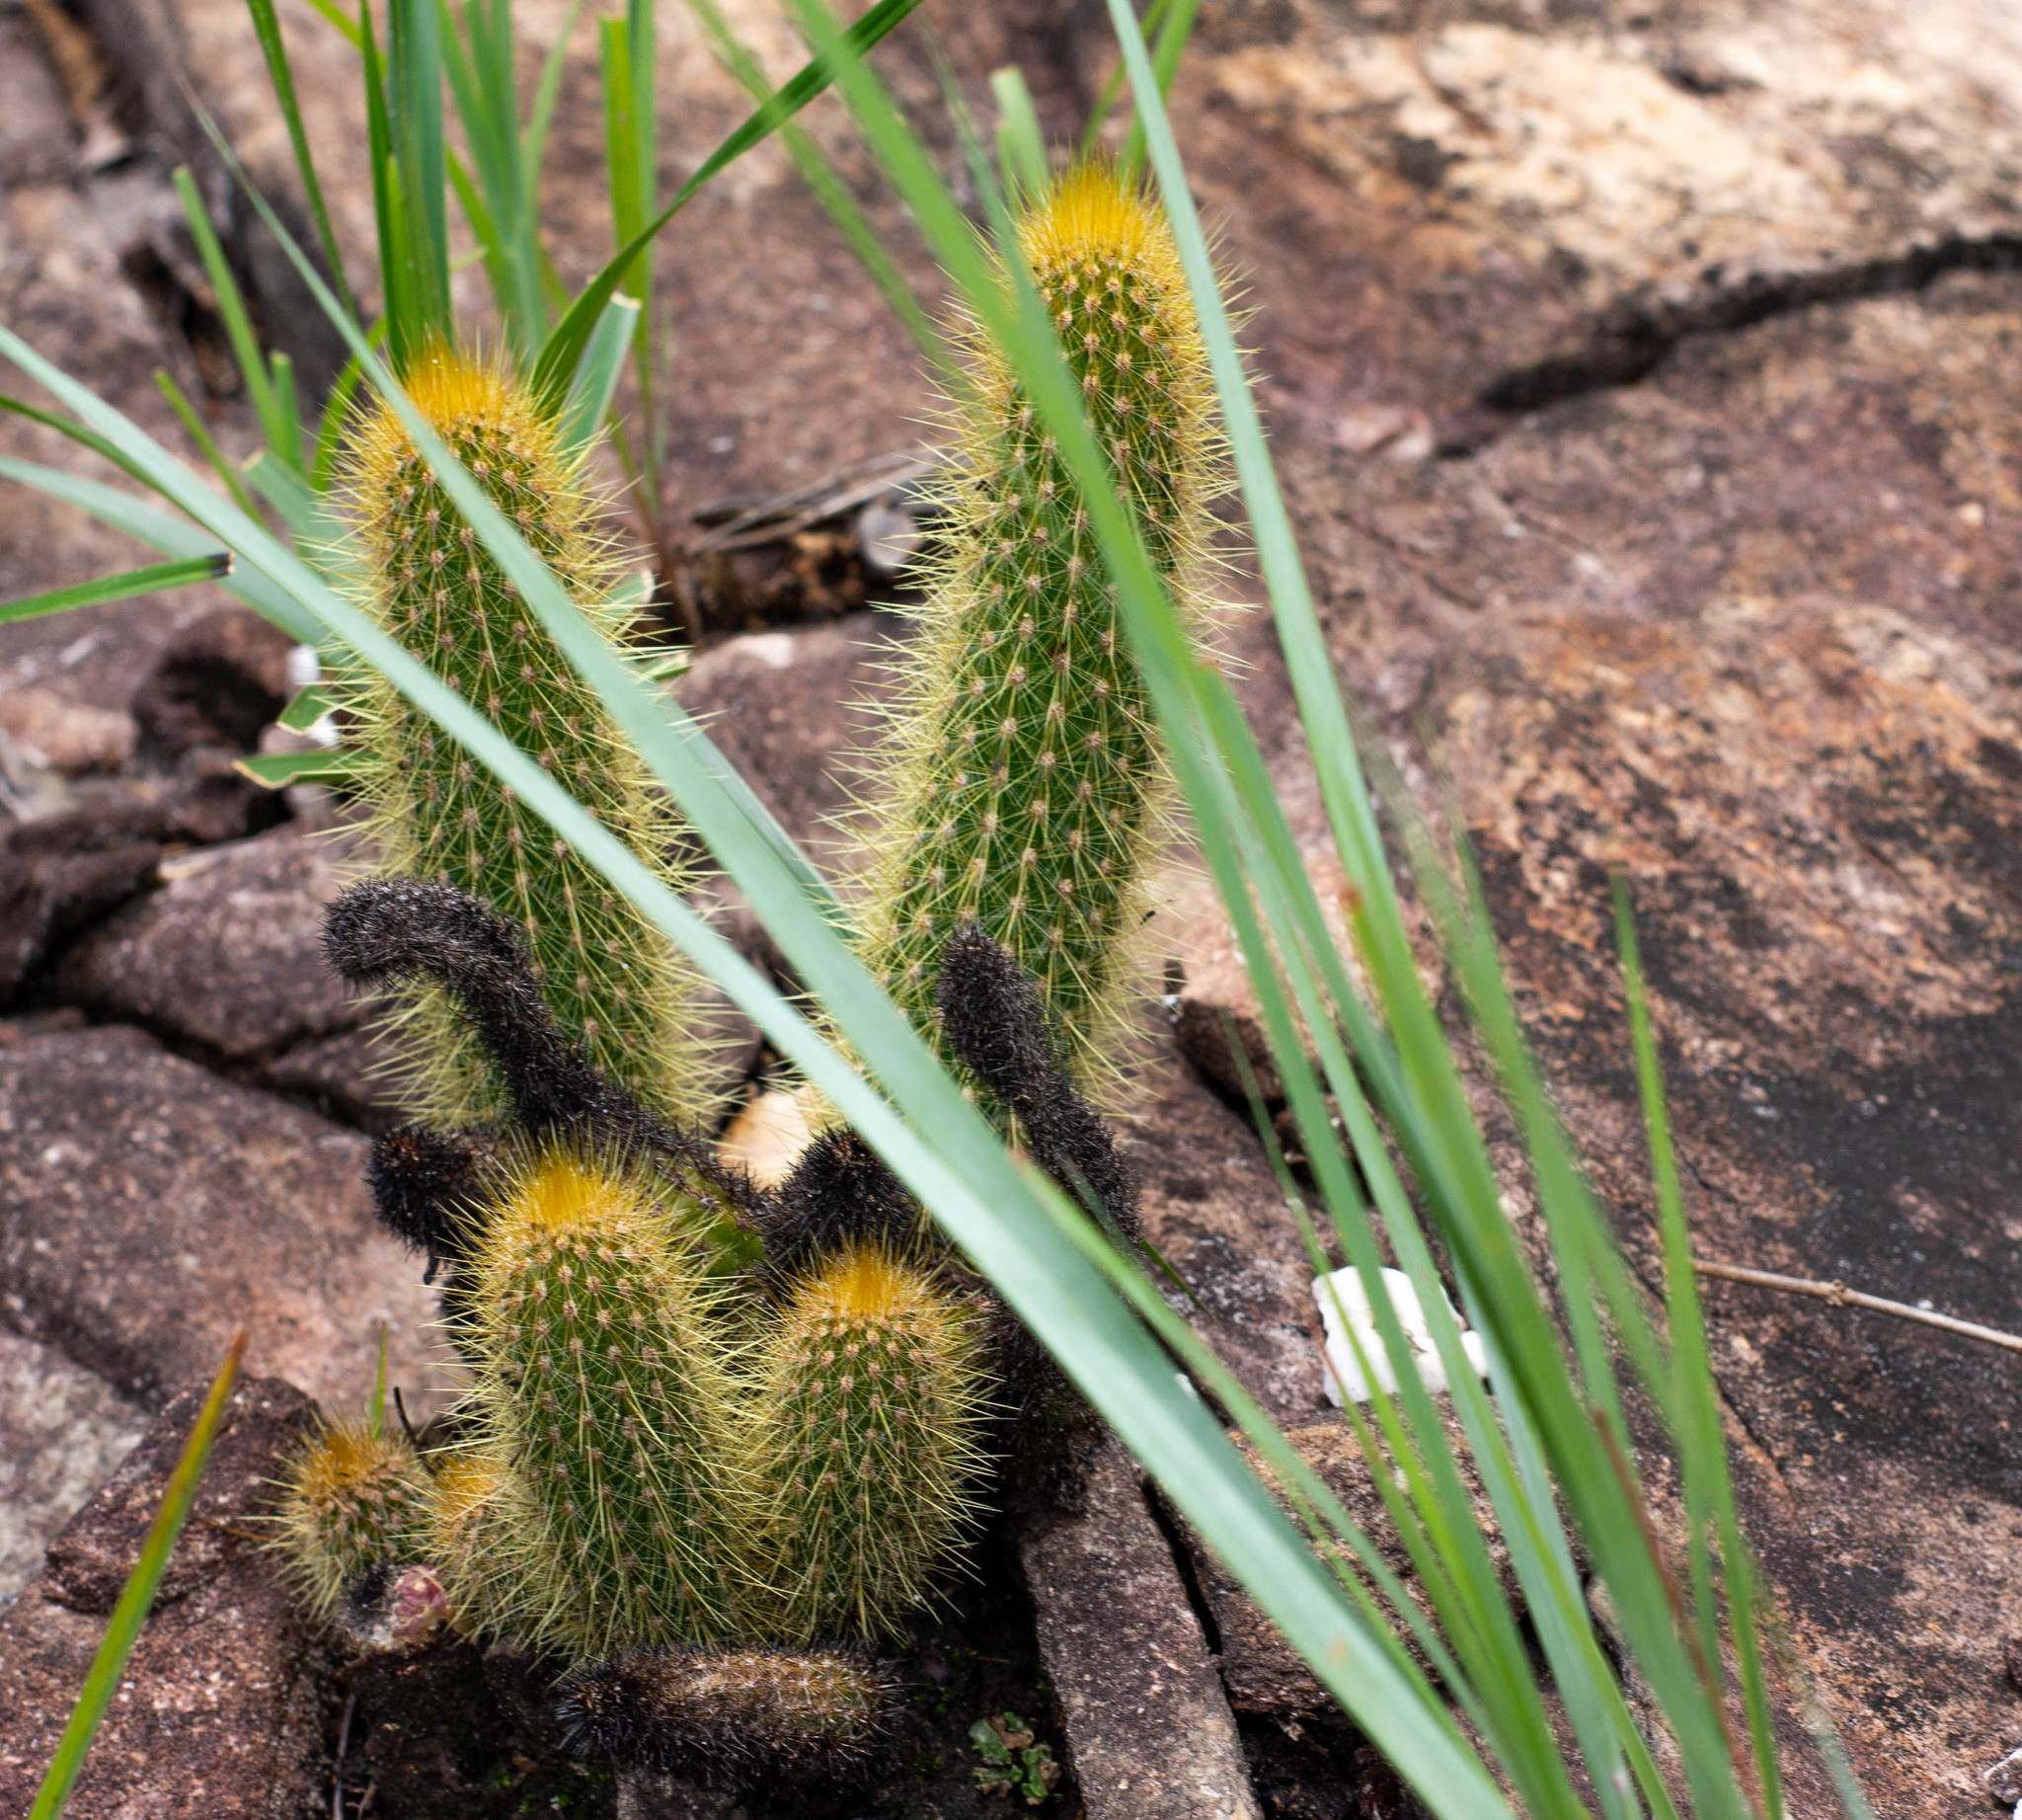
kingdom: Plantae
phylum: Tracheophyta
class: Magnoliopsida
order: Caryophyllales
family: Cactaceae
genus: Arthrocereus
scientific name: Arthrocereus melanurus
